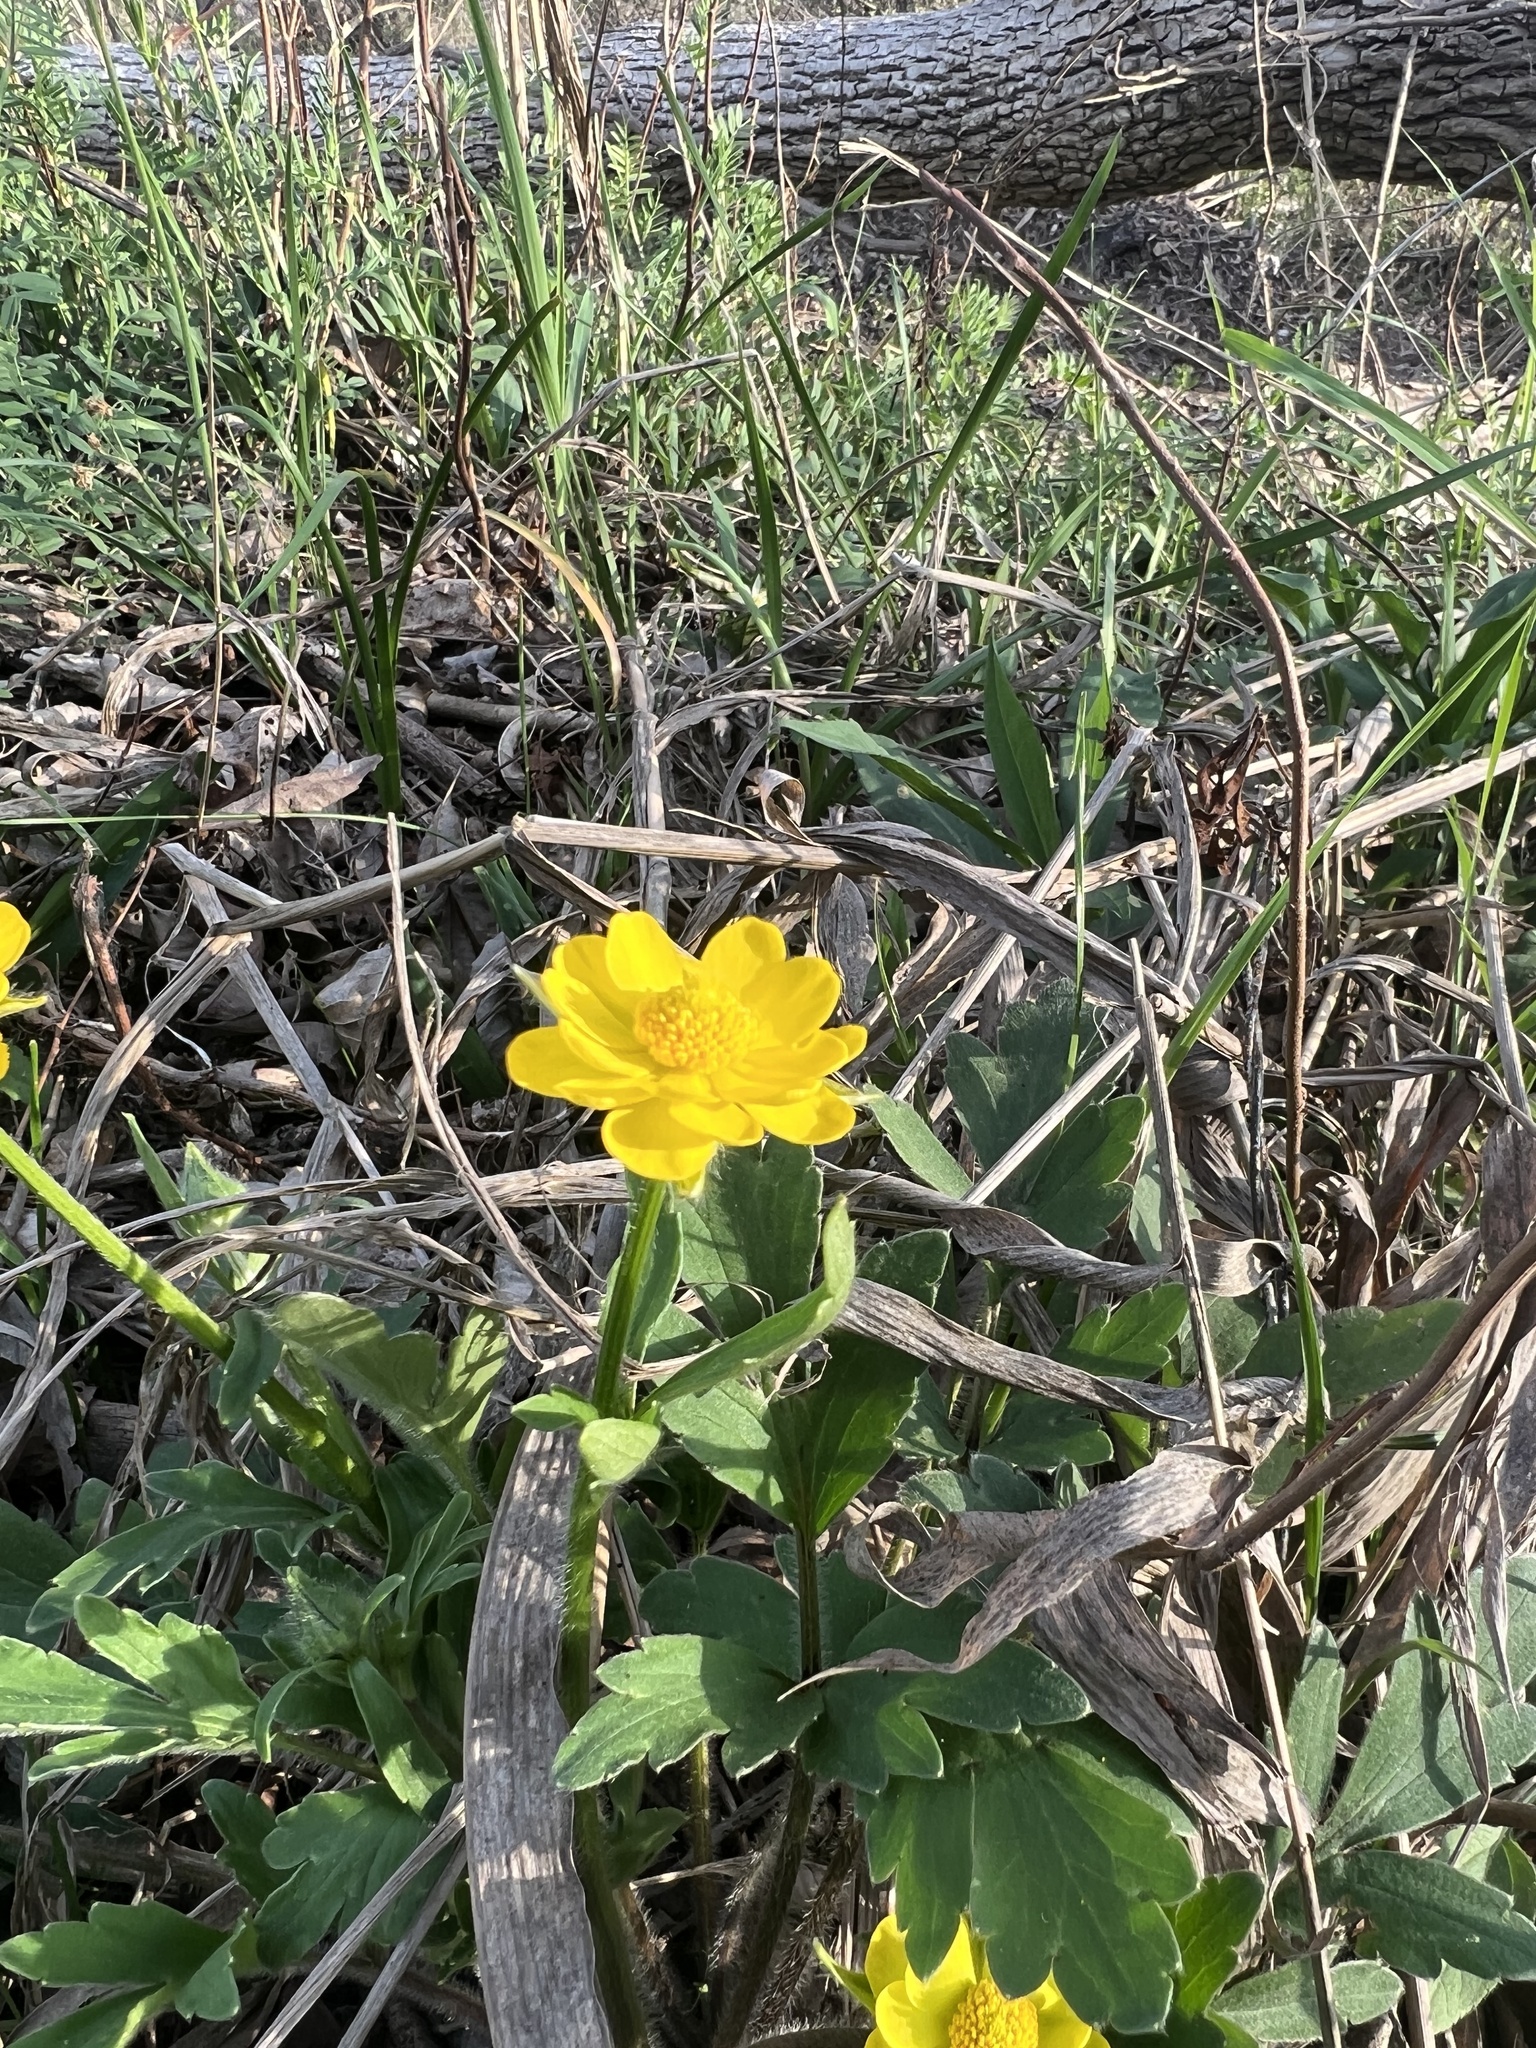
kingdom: Plantae
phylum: Tracheophyta
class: Magnoliopsida
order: Ranunculales
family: Ranunculaceae
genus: Ranunculus
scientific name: Ranunculus macranthus
